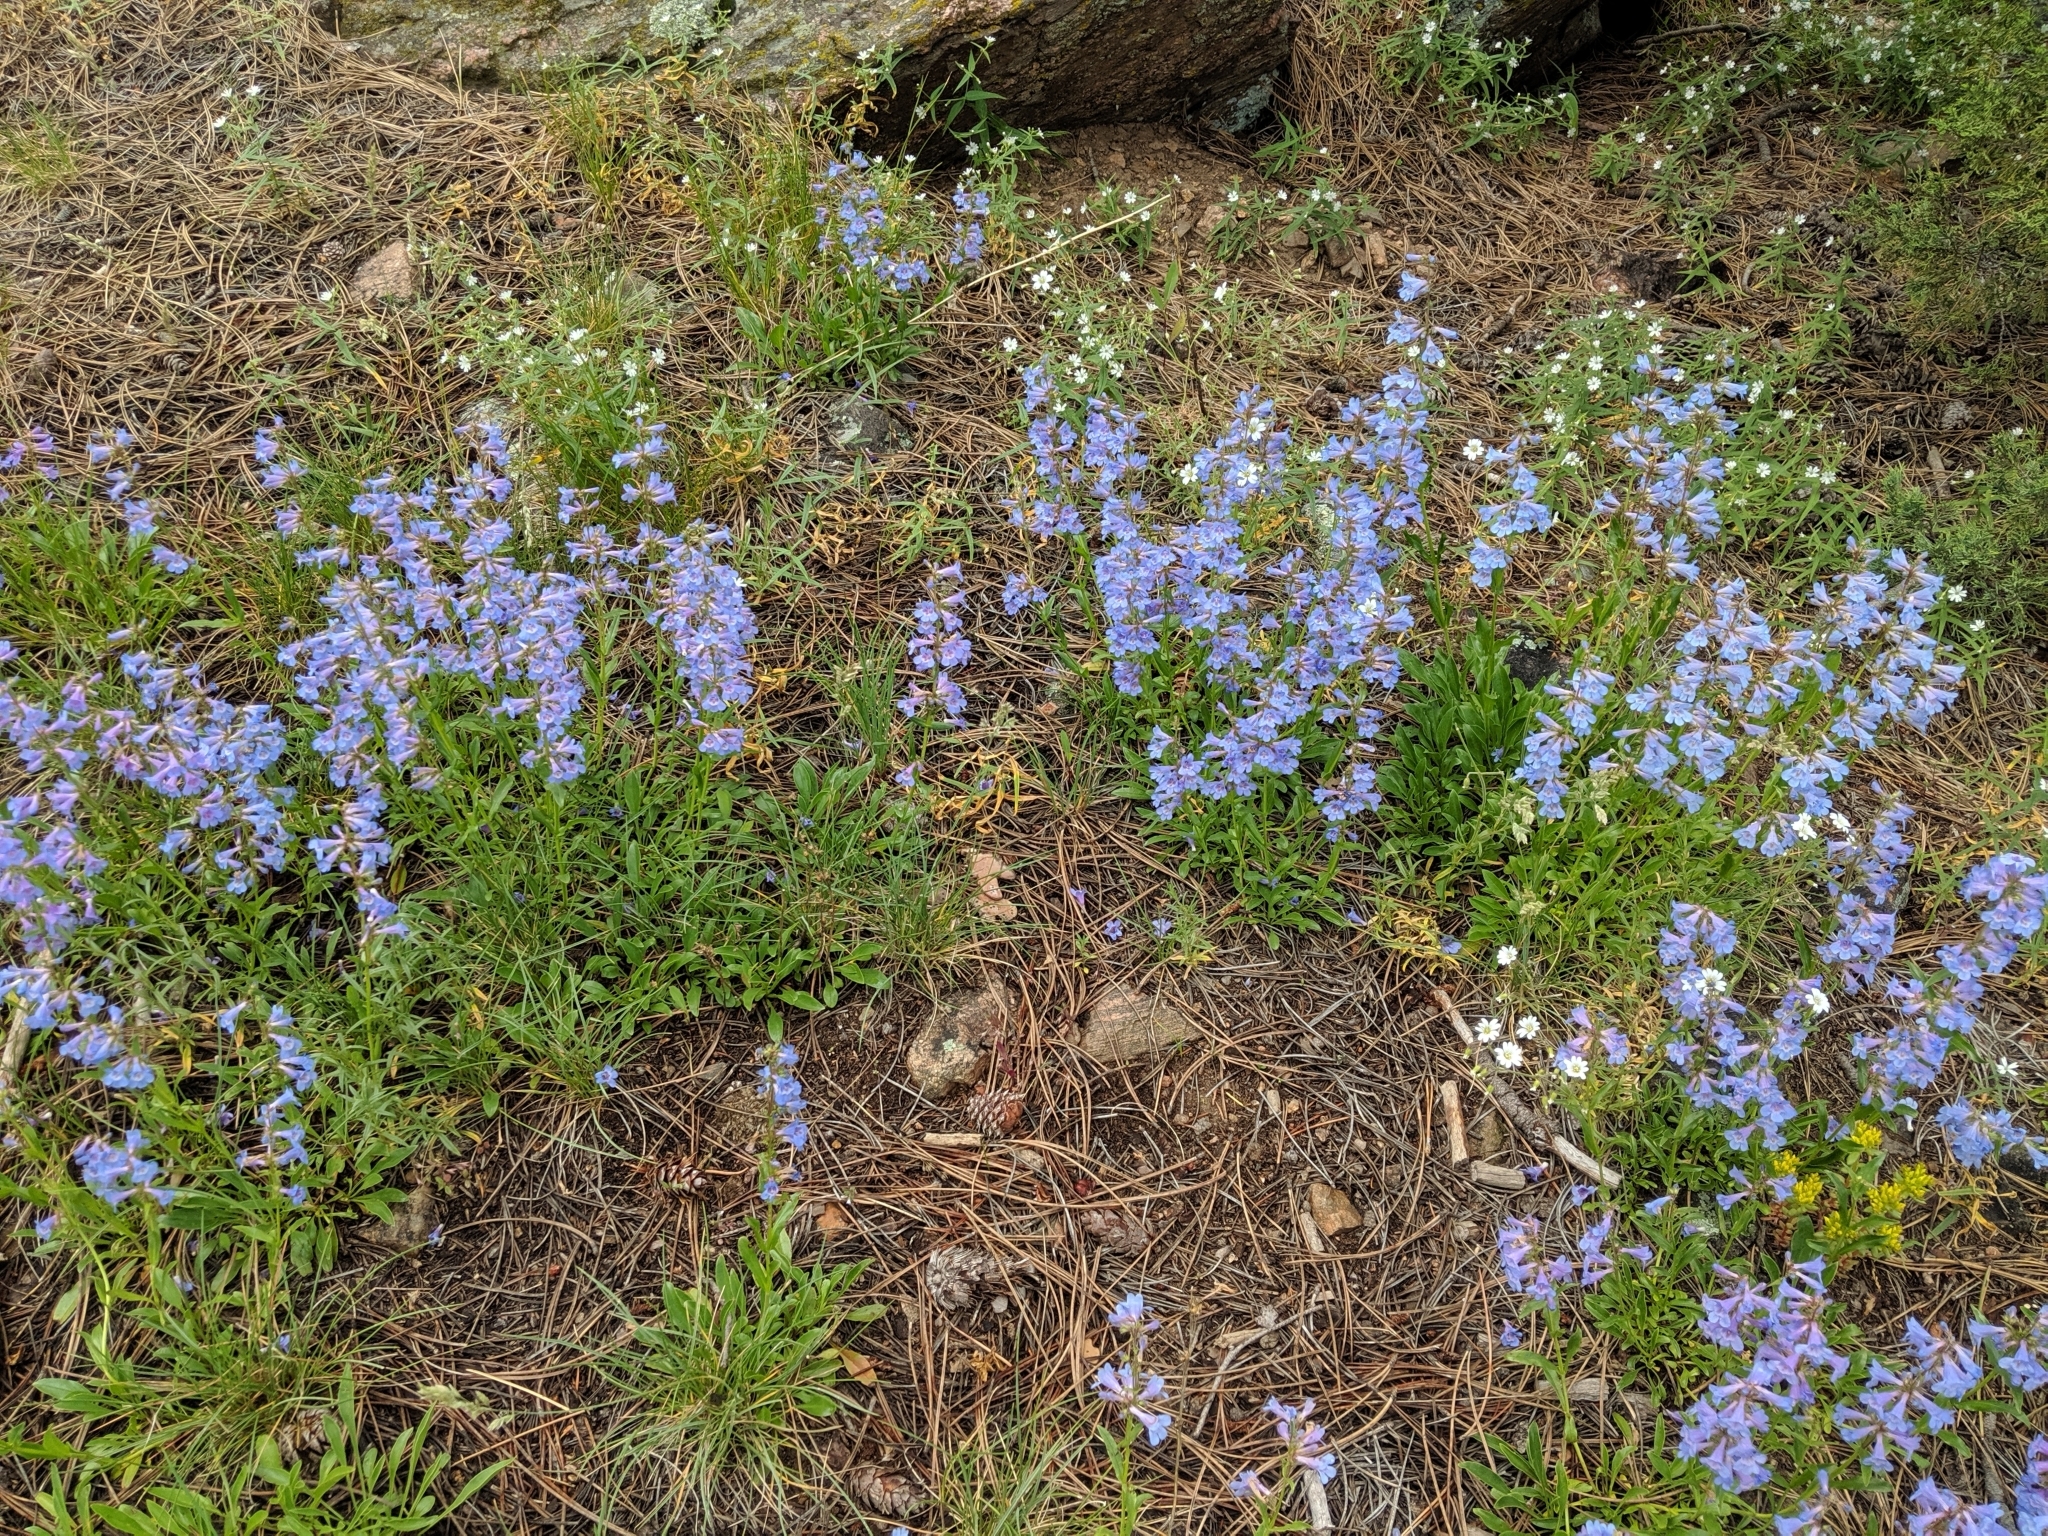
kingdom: Plantae
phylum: Tracheophyta
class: Magnoliopsida
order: Lamiales
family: Plantaginaceae
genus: Penstemon
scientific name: Penstemon virens
